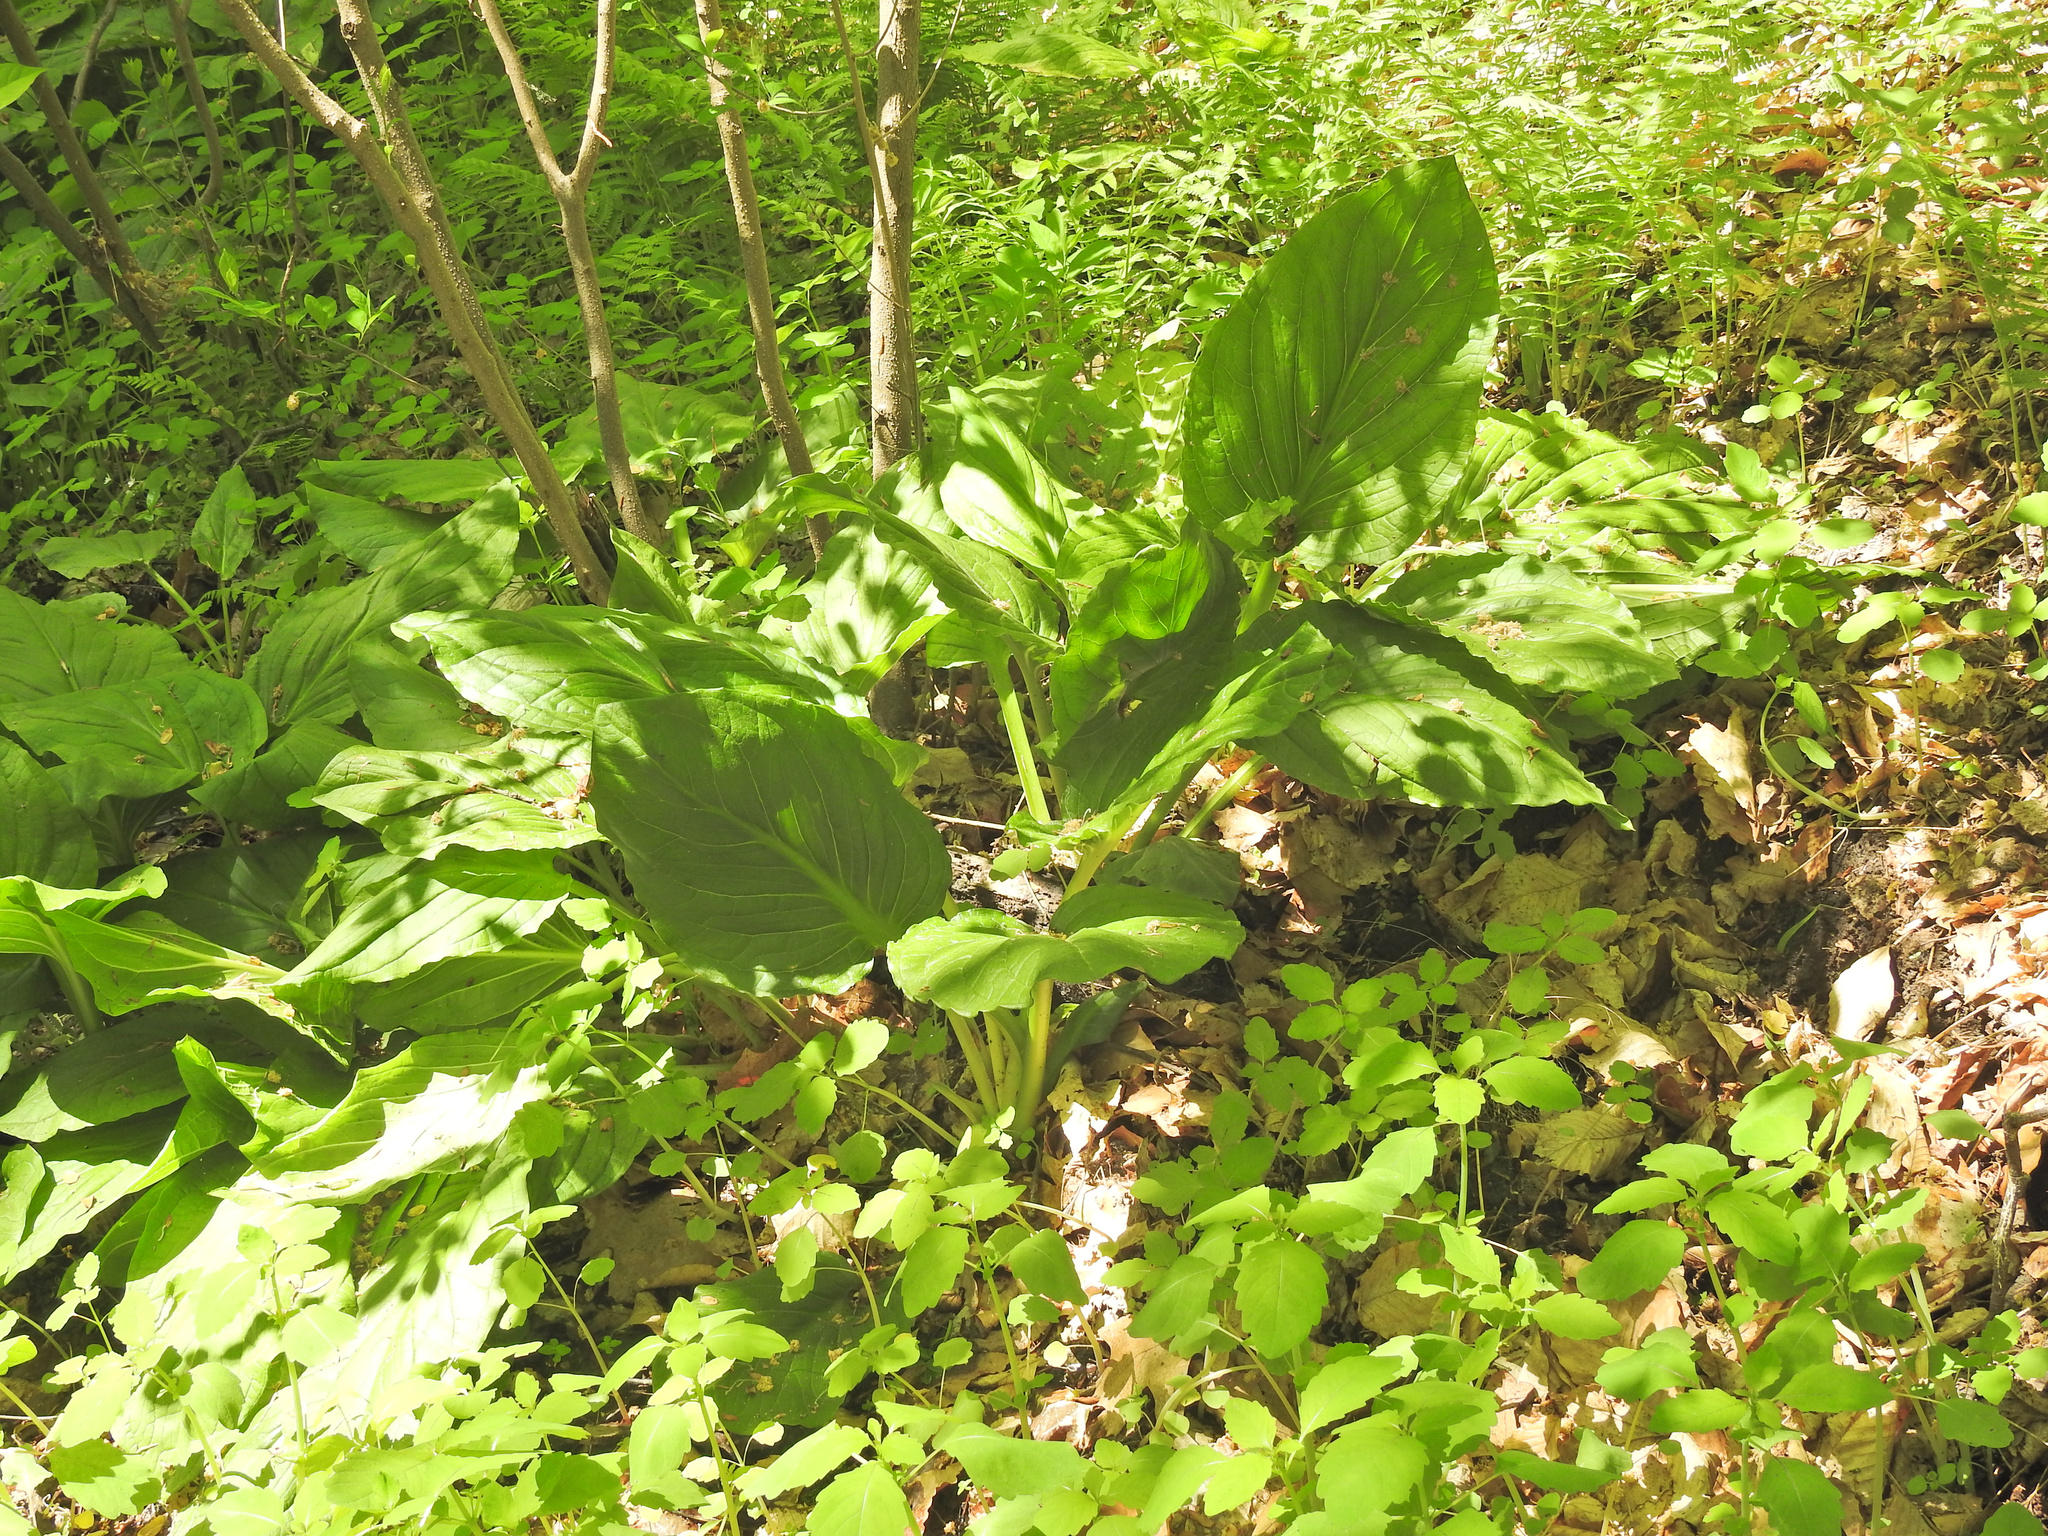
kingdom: Plantae
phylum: Tracheophyta
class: Liliopsida
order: Alismatales
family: Araceae
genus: Symplocarpus
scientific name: Symplocarpus foetidus
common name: Eastern skunk cabbage
